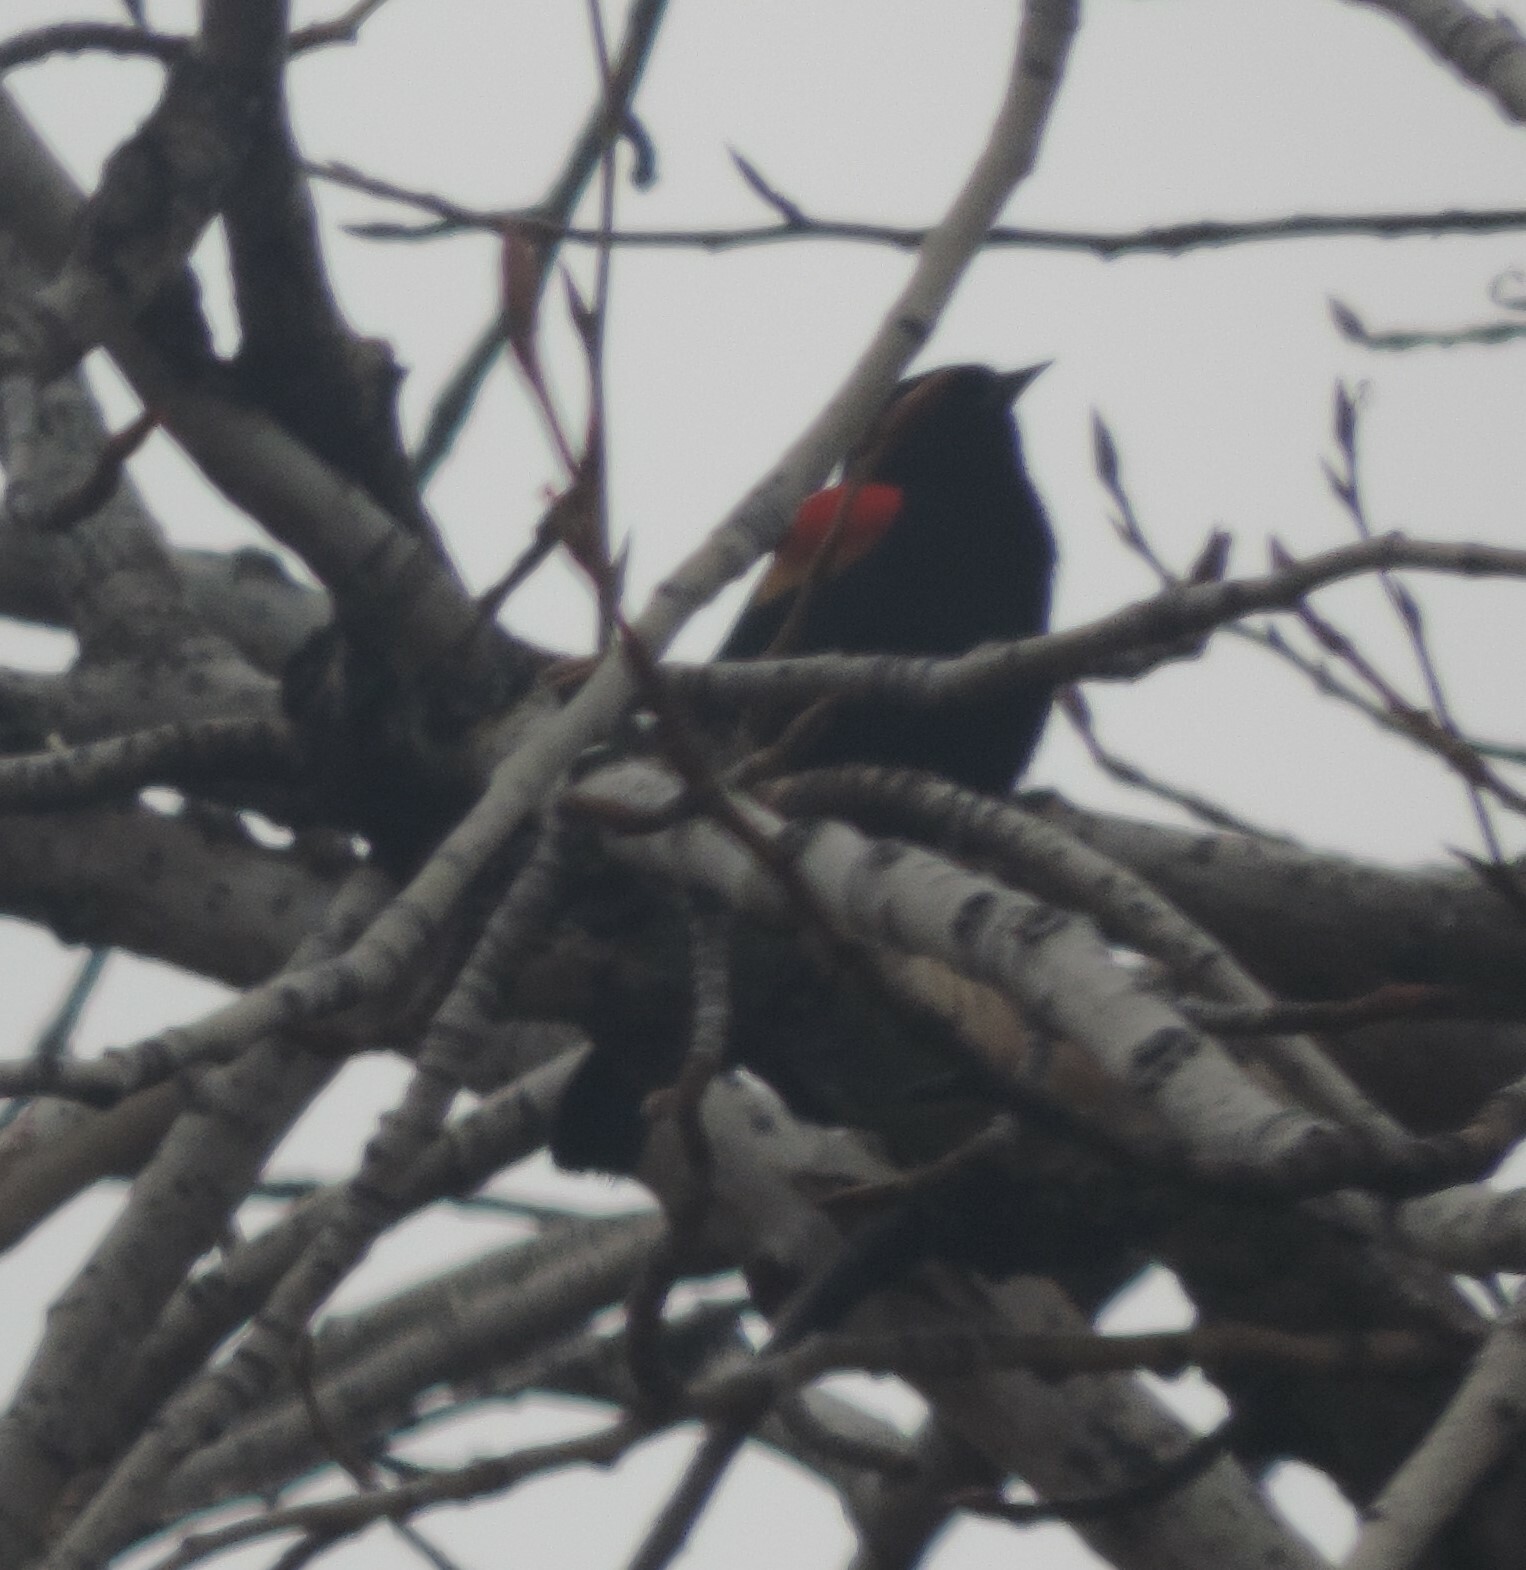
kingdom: Animalia
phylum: Chordata
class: Aves
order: Passeriformes
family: Icteridae
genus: Agelaius
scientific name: Agelaius phoeniceus
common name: Red-winged blackbird
